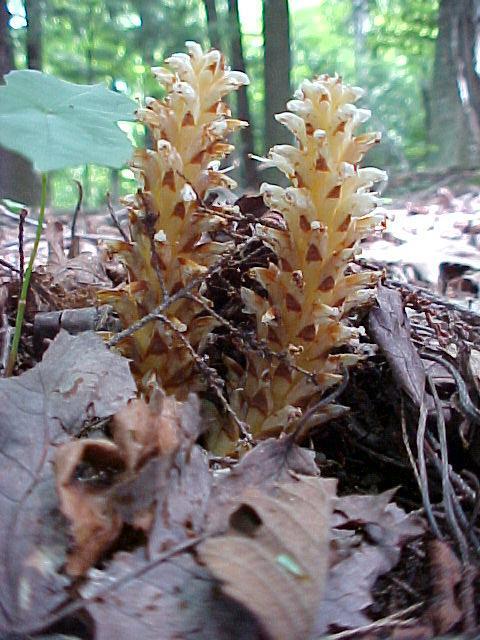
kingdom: Plantae
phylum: Tracheophyta
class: Magnoliopsida
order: Lamiales
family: Orobanchaceae
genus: Conopholis
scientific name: Conopholis americana
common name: American cancer-root
